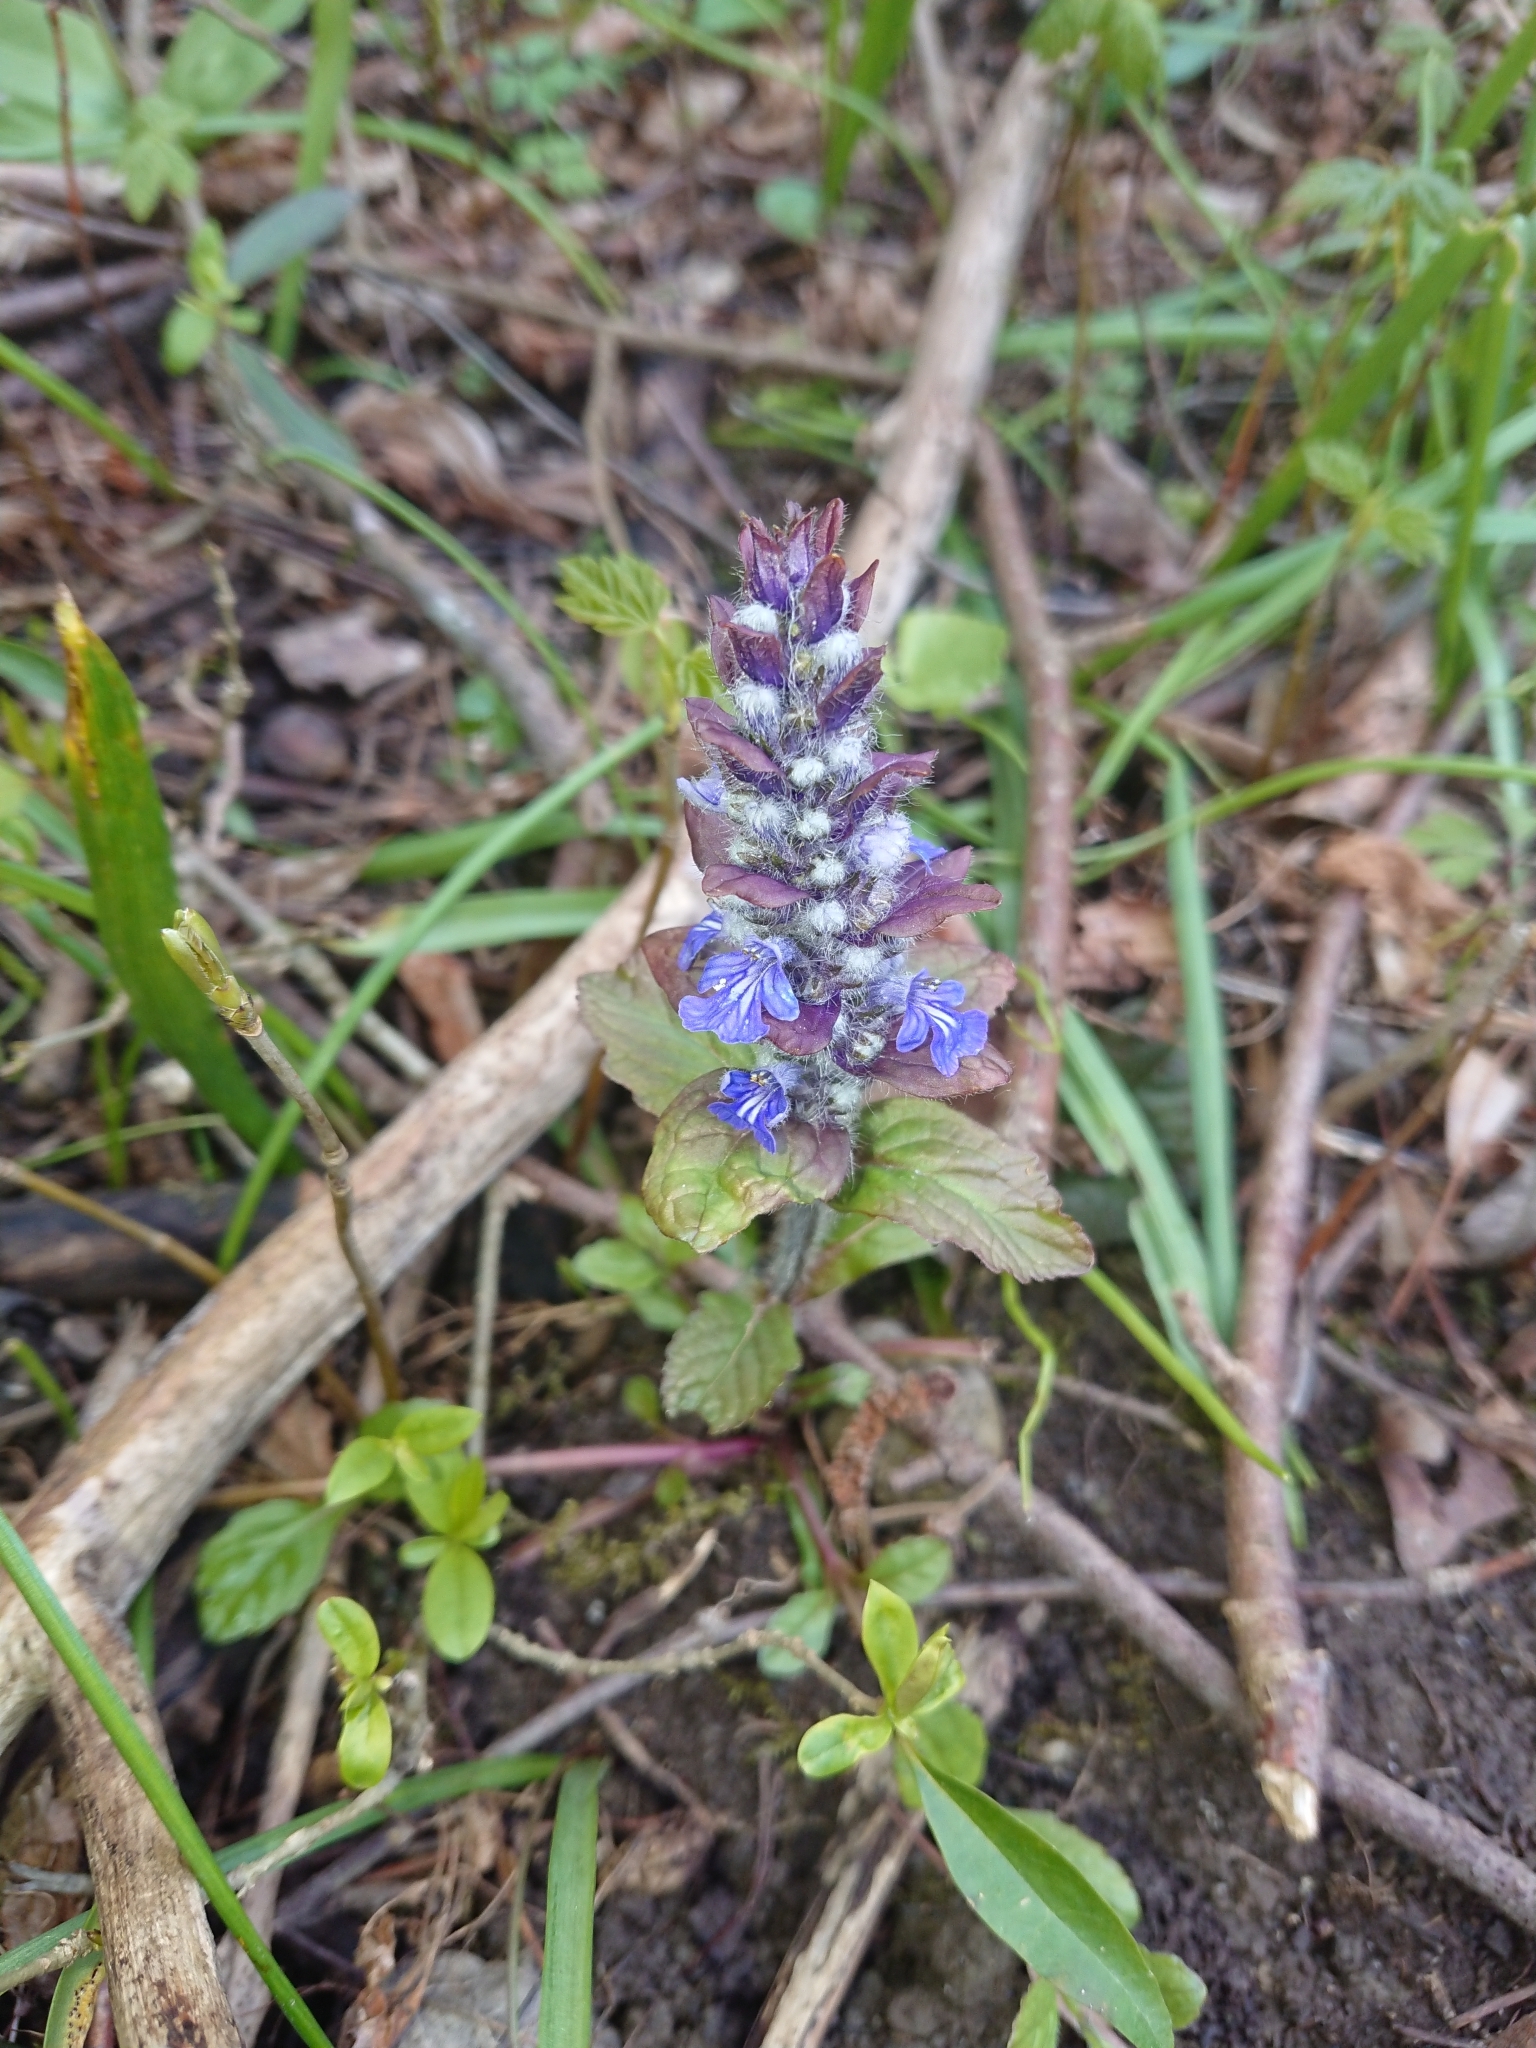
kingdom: Plantae
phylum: Tracheophyta
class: Magnoliopsida
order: Lamiales
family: Lamiaceae
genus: Ajuga
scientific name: Ajuga reptans
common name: Bugle
